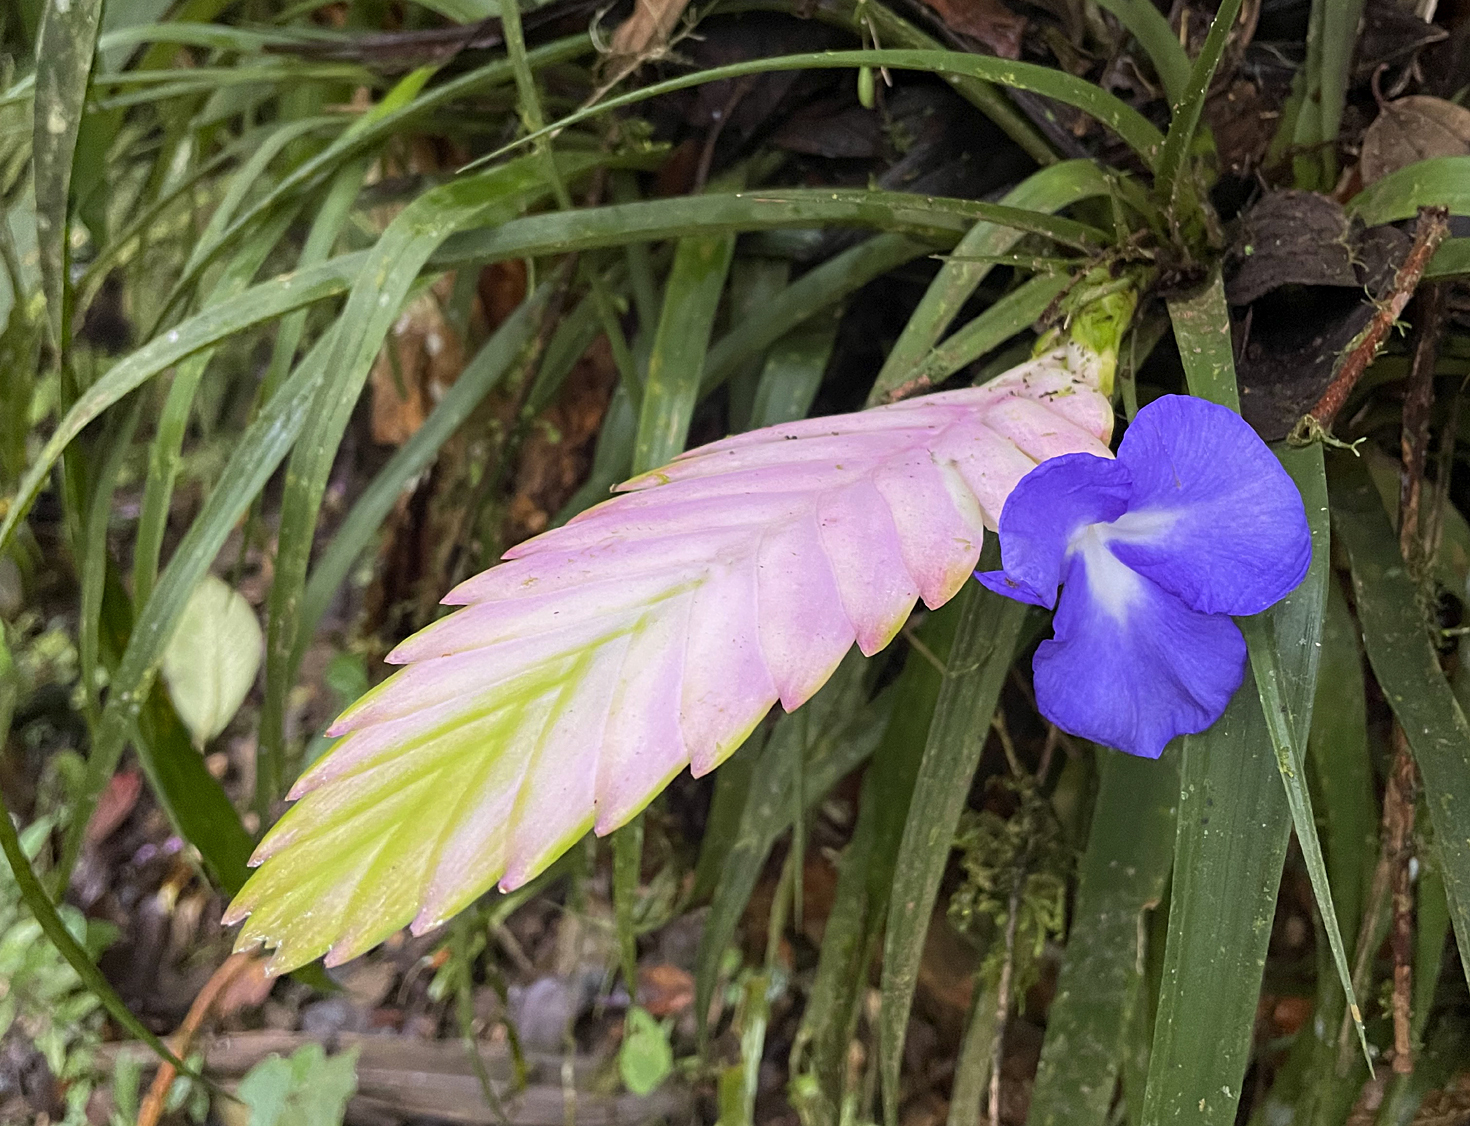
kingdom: Plantae
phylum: Tracheophyta
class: Liliopsida
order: Poales
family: Bromeliaceae
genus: Wallisia
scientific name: Wallisia cyanea
